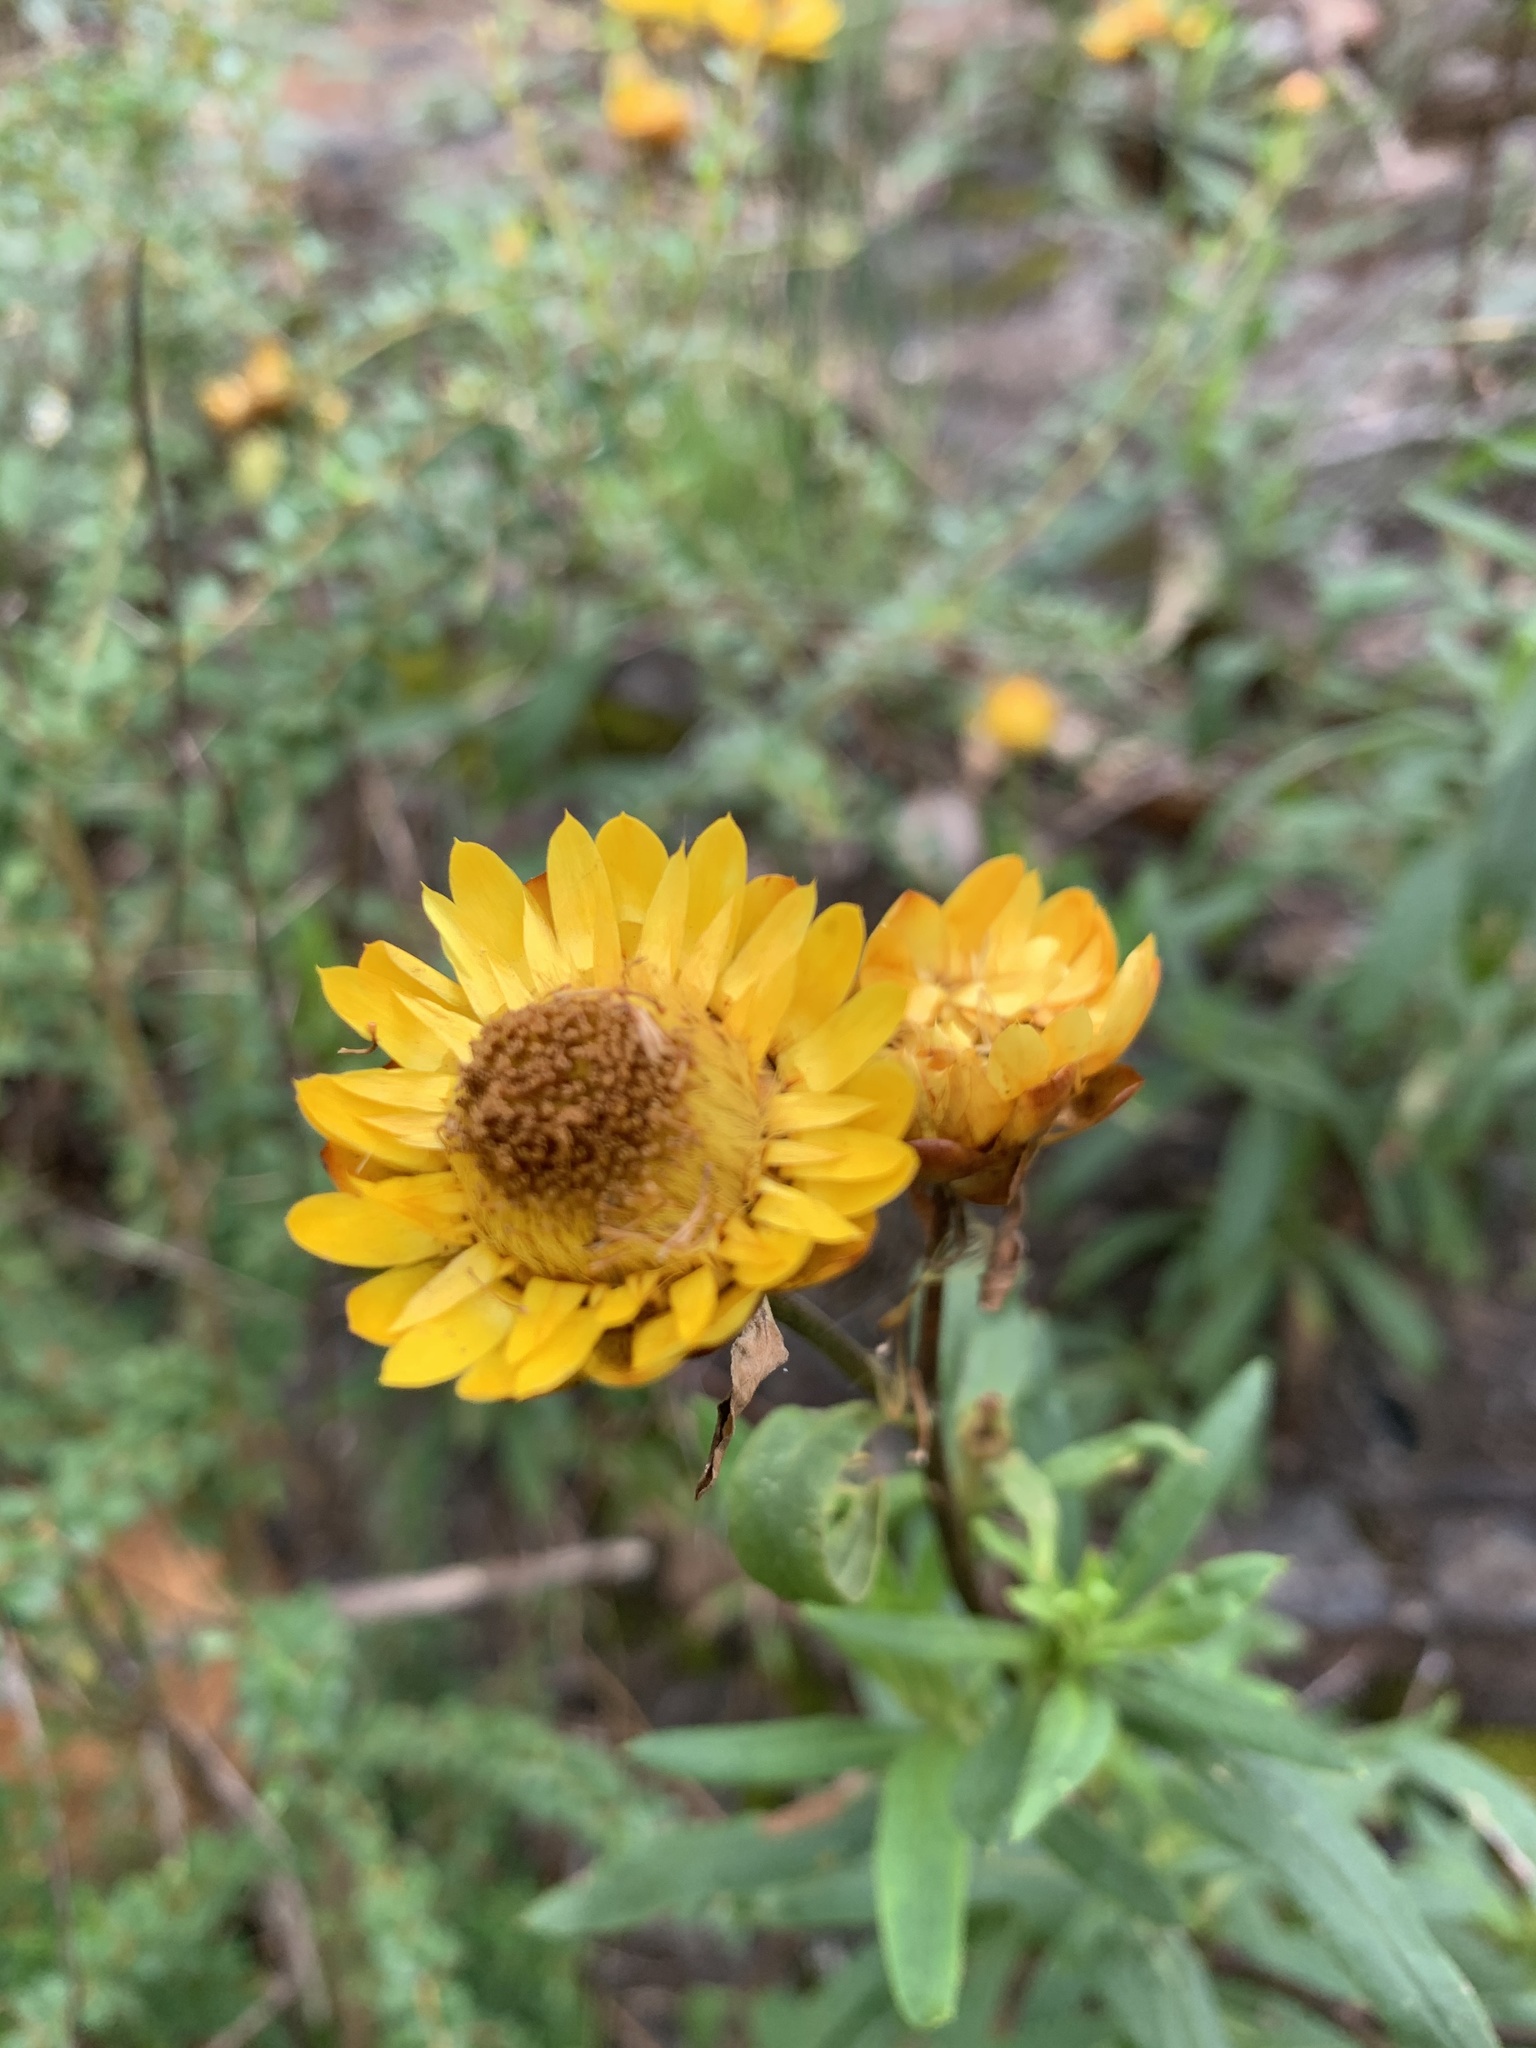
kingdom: Plantae
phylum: Tracheophyta
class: Magnoliopsida
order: Asterales
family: Asteraceae
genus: Xerochrysum
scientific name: Xerochrysum bracteatum
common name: Bracted strawflower
